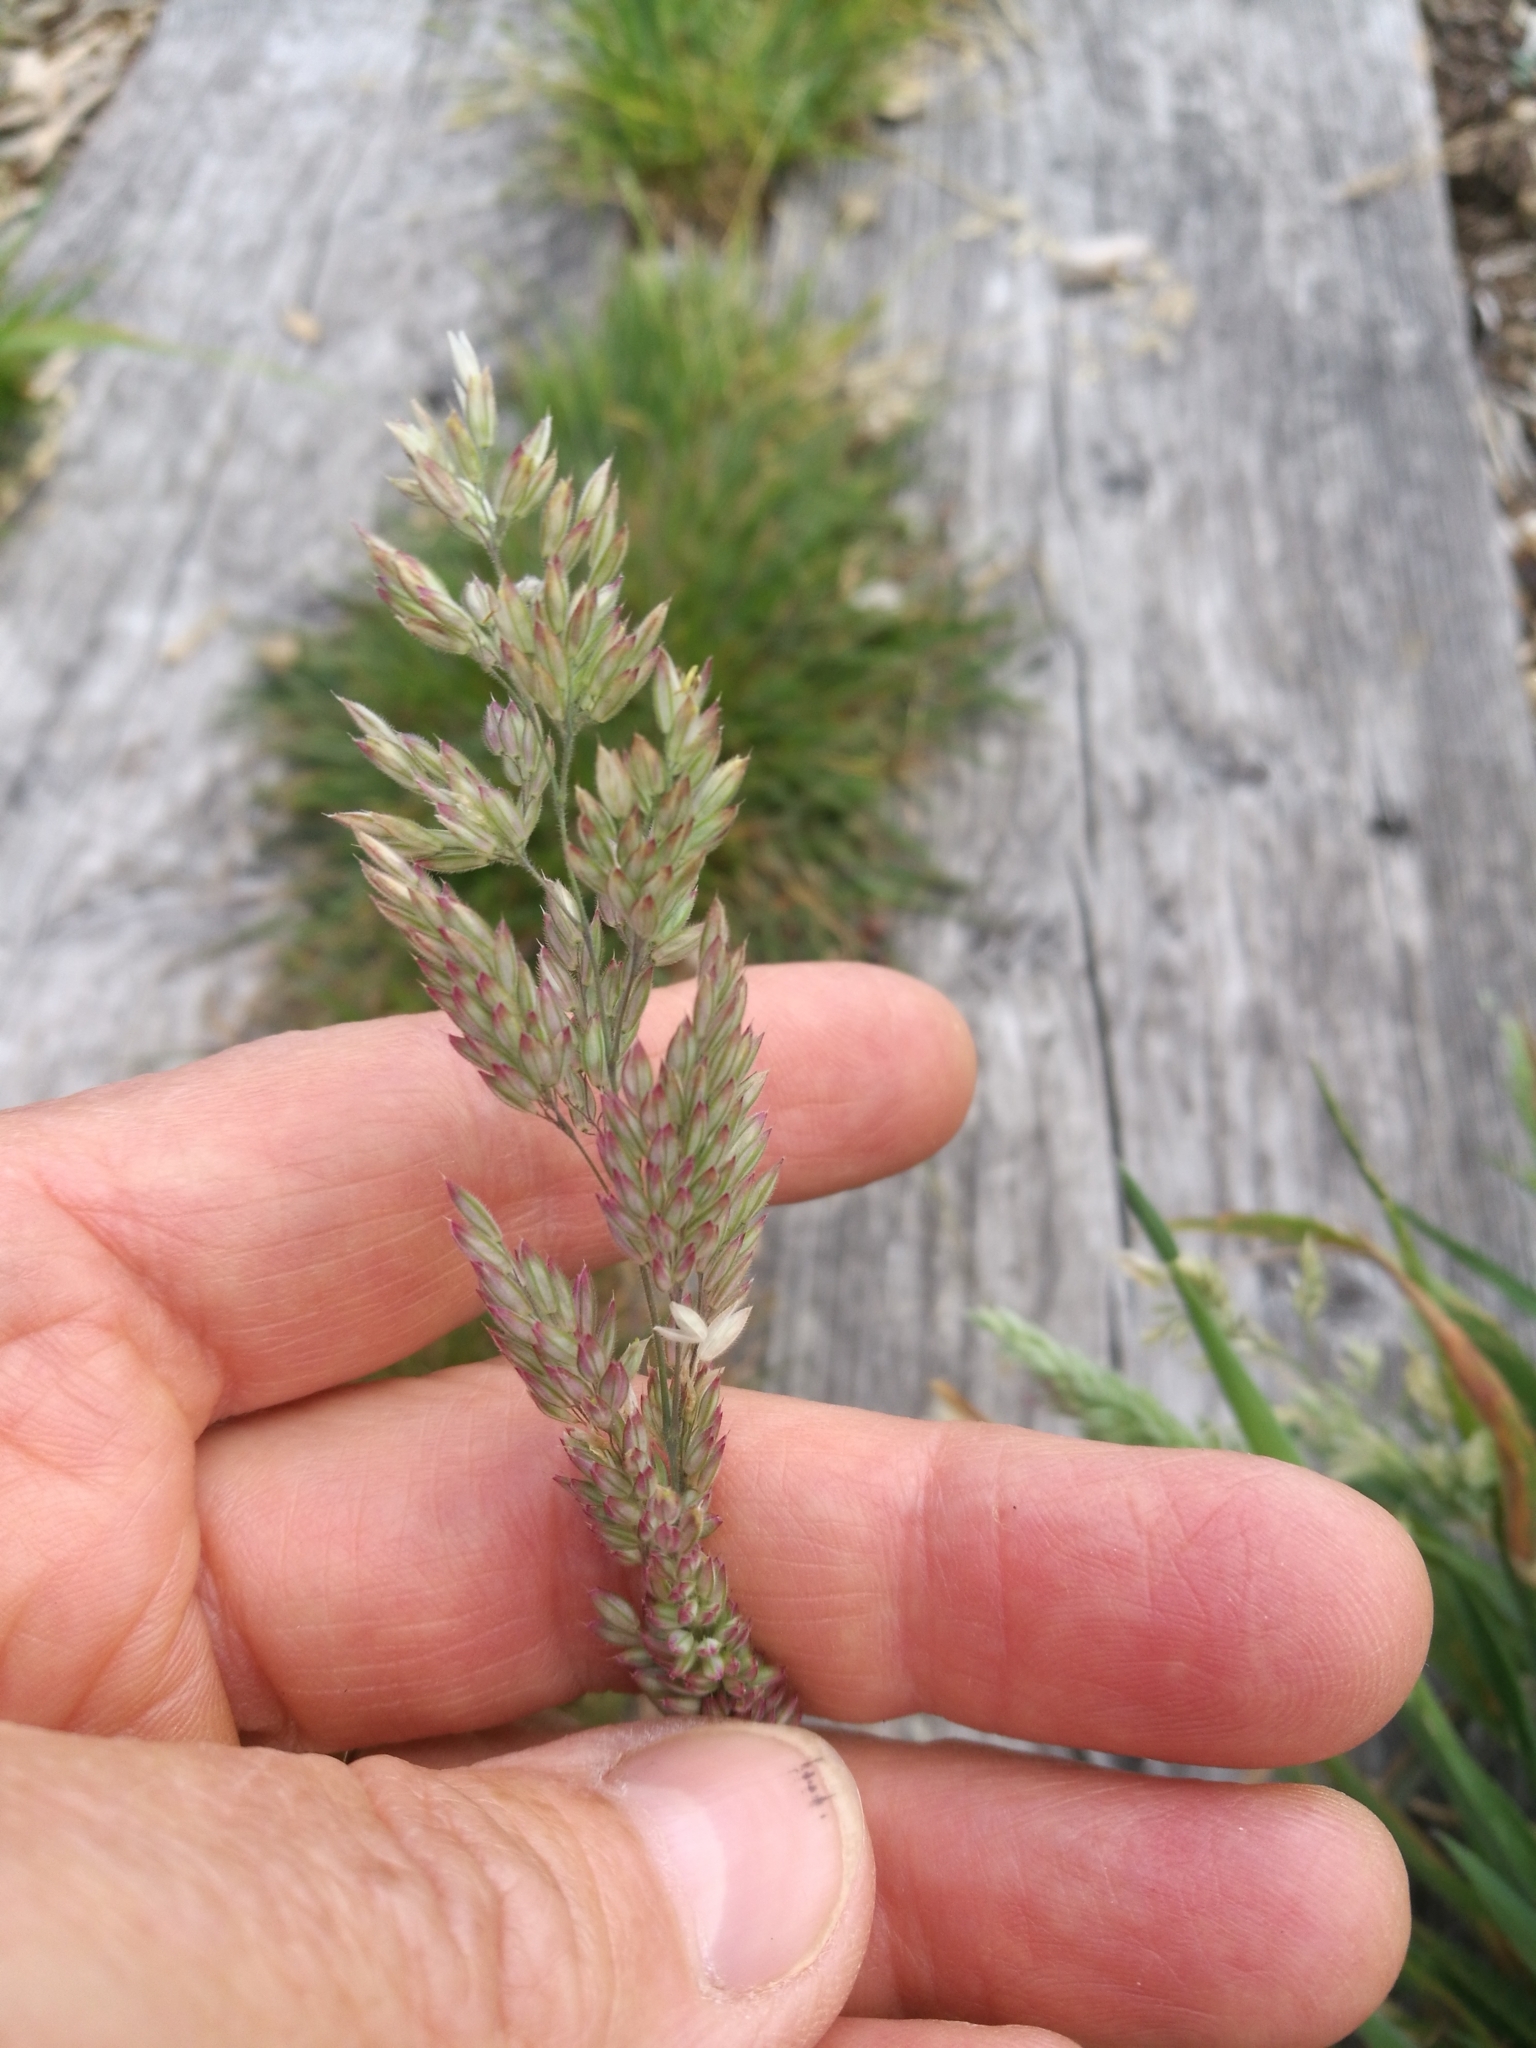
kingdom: Plantae
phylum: Tracheophyta
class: Liliopsida
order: Poales
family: Poaceae
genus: Holcus
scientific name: Holcus lanatus
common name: Yorkshire-fog
